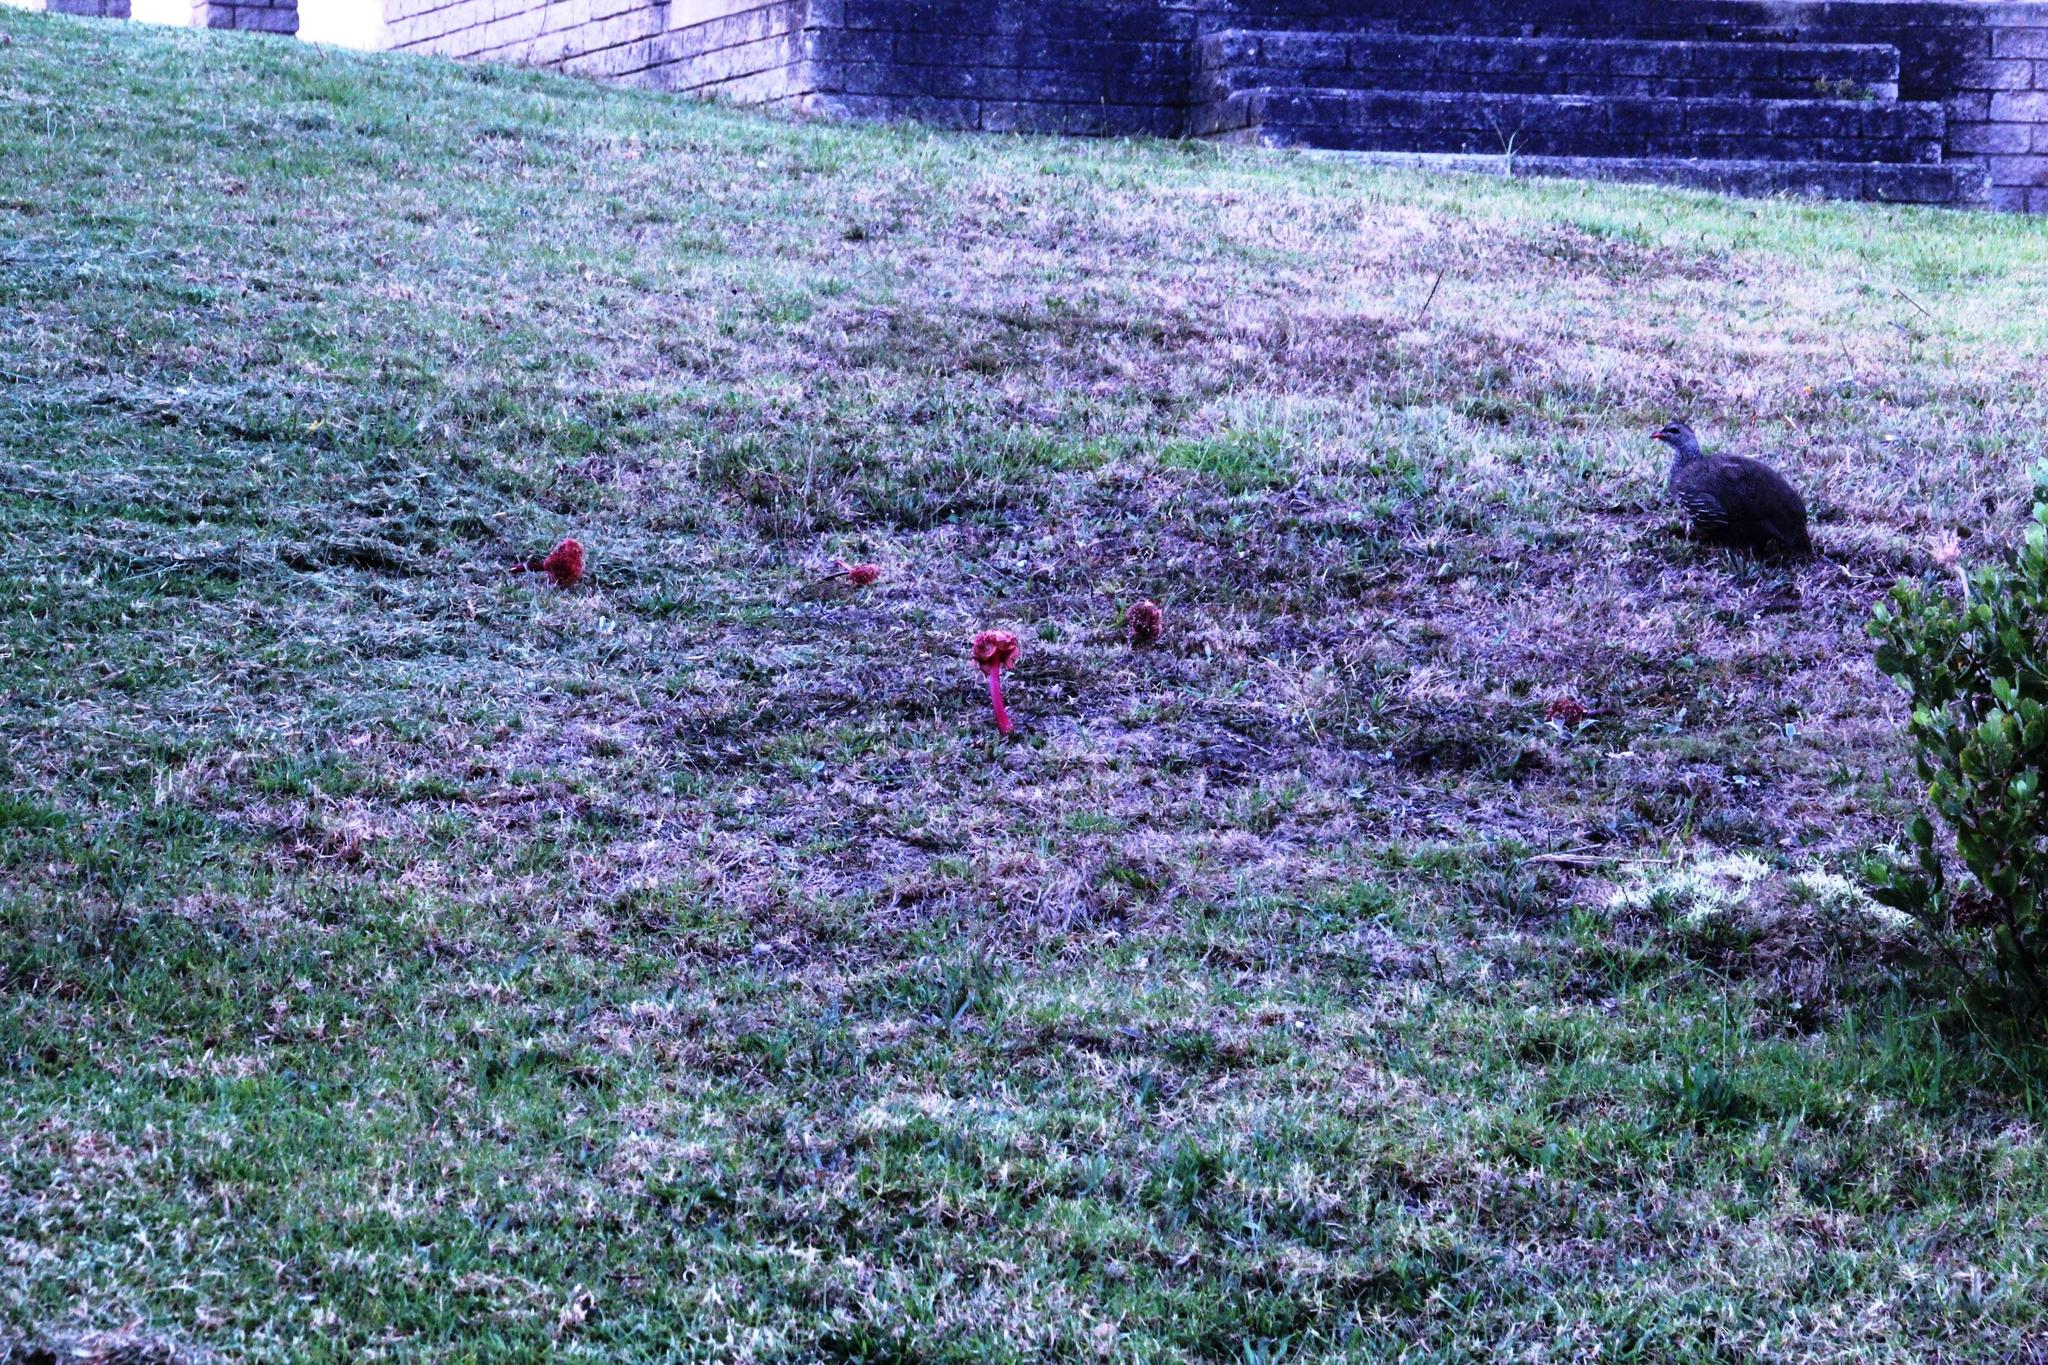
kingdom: Plantae
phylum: Tracheophyta
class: Liliopsida
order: Asparagales
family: Amaryllidaceae
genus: Haemanthus
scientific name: Haemanthus sanguineus
